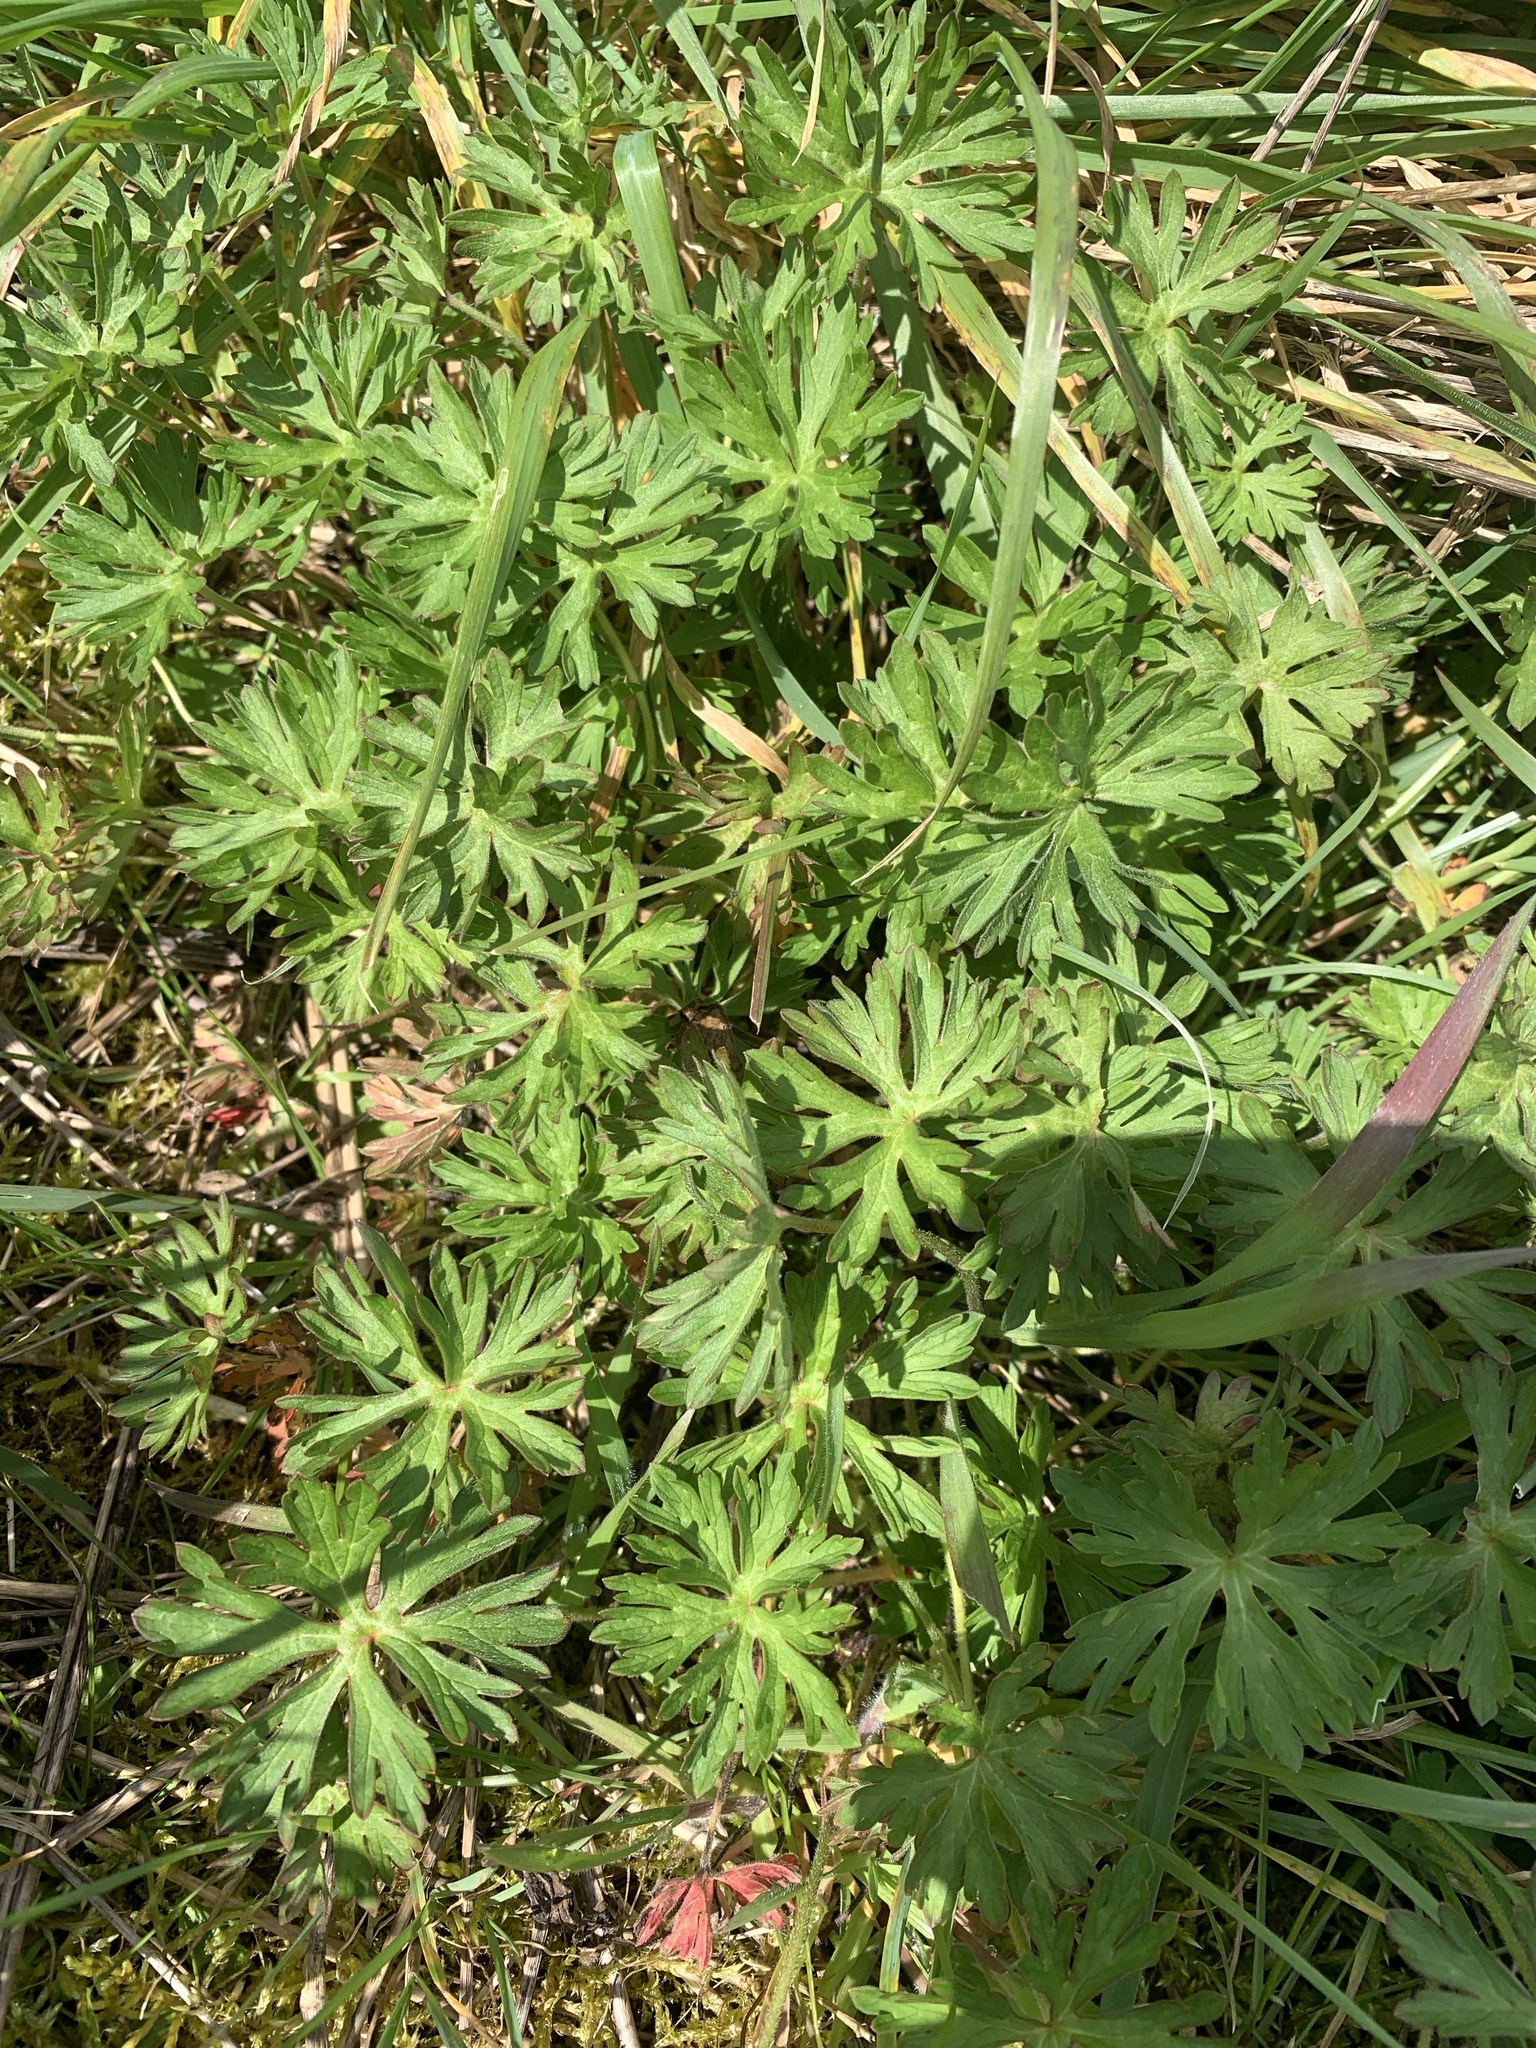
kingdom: Plantae
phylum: Tracheophyta
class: Magnoliopsida
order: Geraniales
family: Geraniaceae
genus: Geranium
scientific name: Geranium dissectum
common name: Cut-leaved crane's-bill
